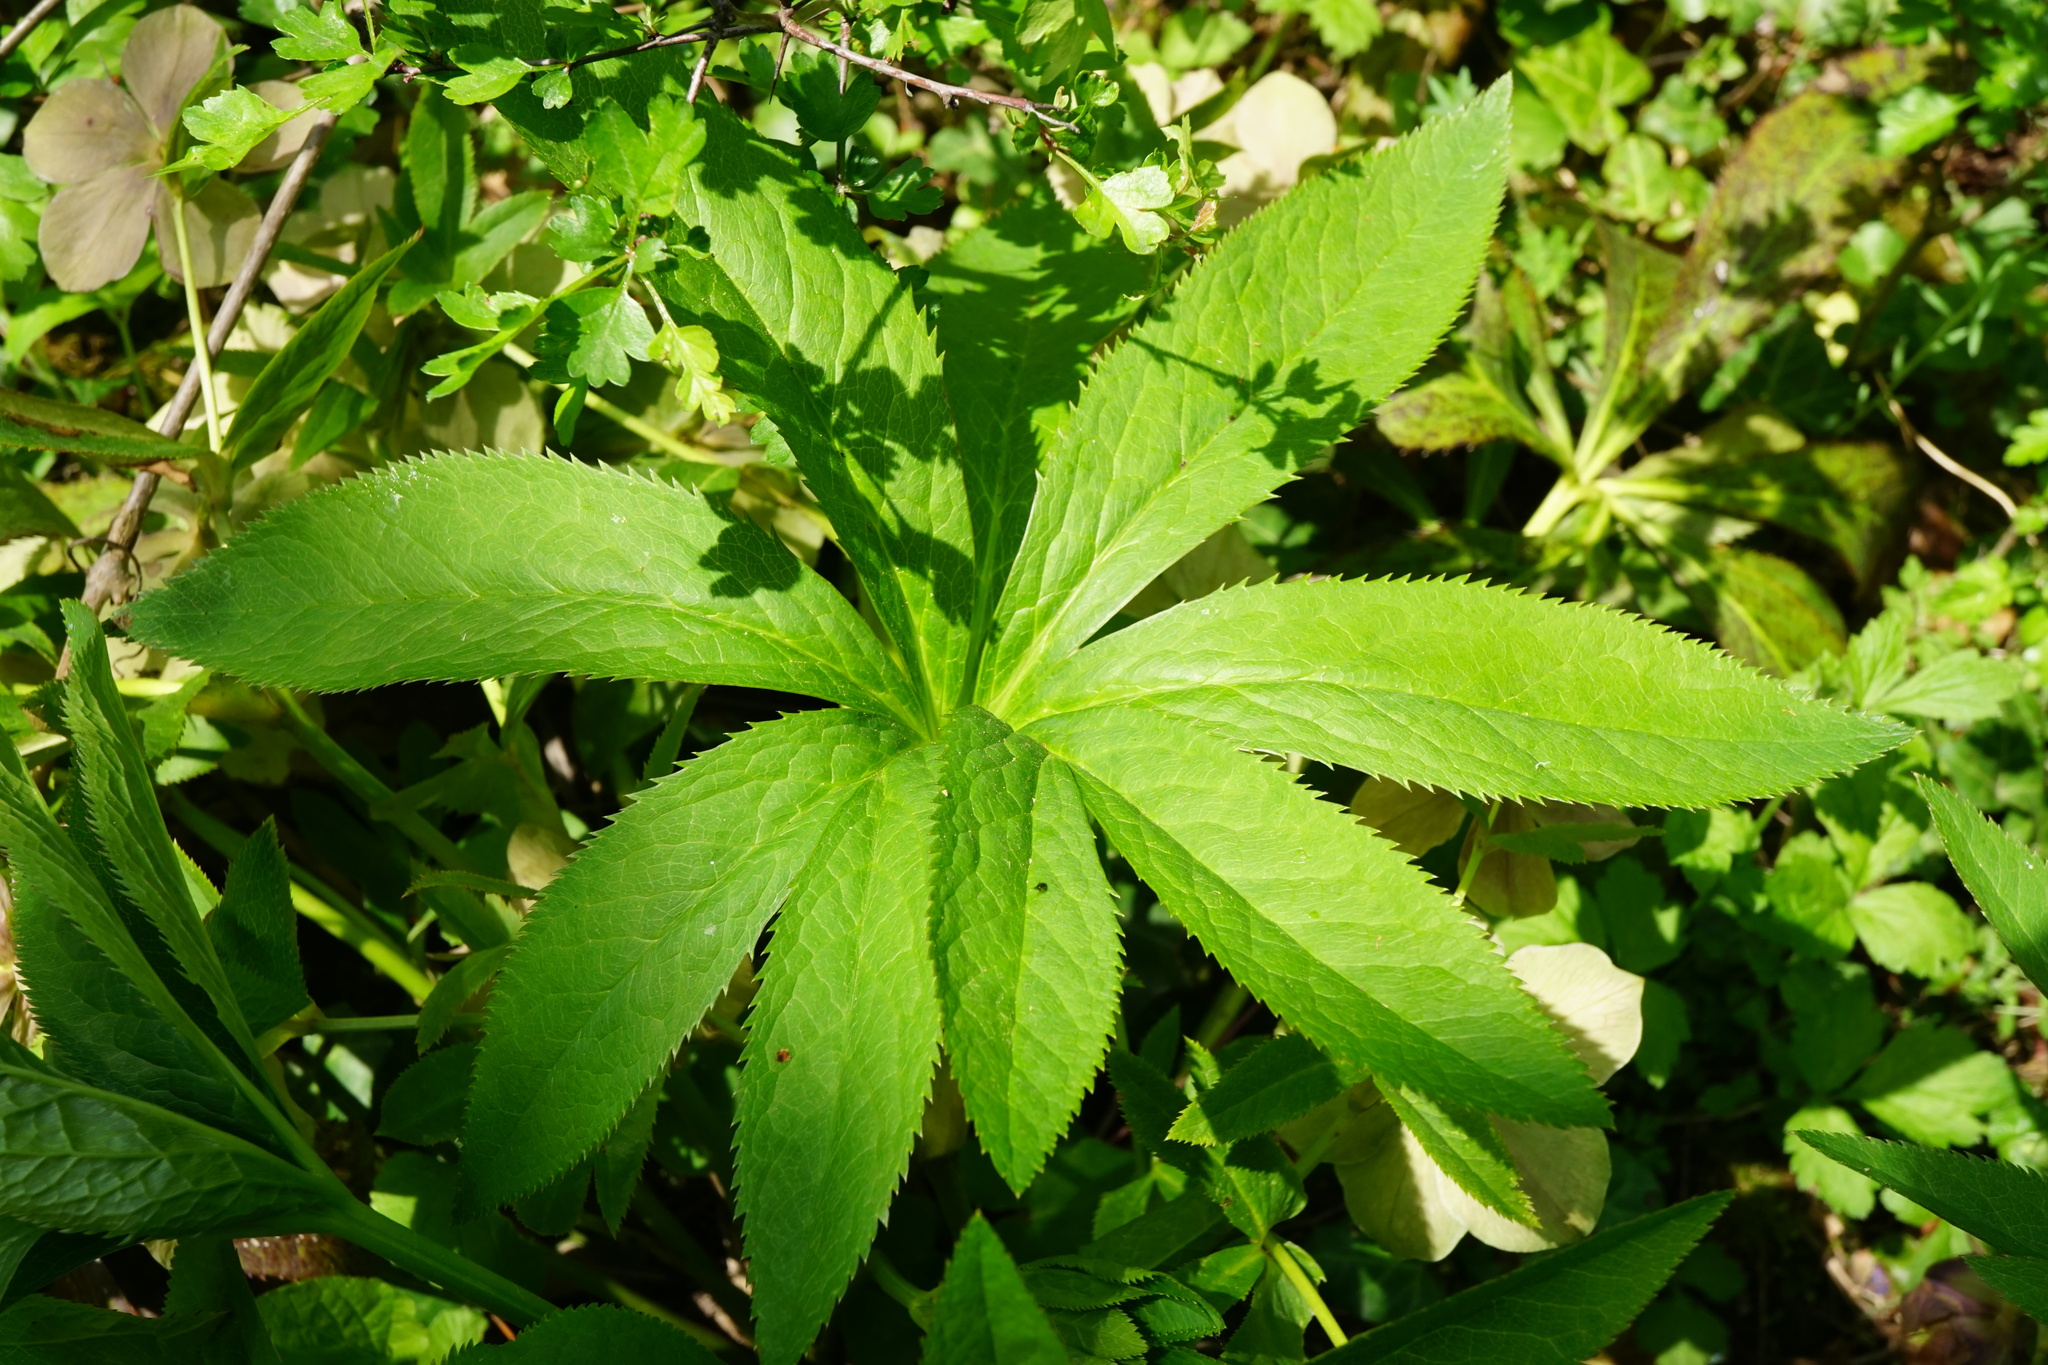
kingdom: Plantae
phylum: Tracheophyta
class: Magnoliopsida
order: Ranunculales
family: Ranunculaceae
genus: Helleborus
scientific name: Helleborus hybridus
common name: Hybrid lenten-rose
